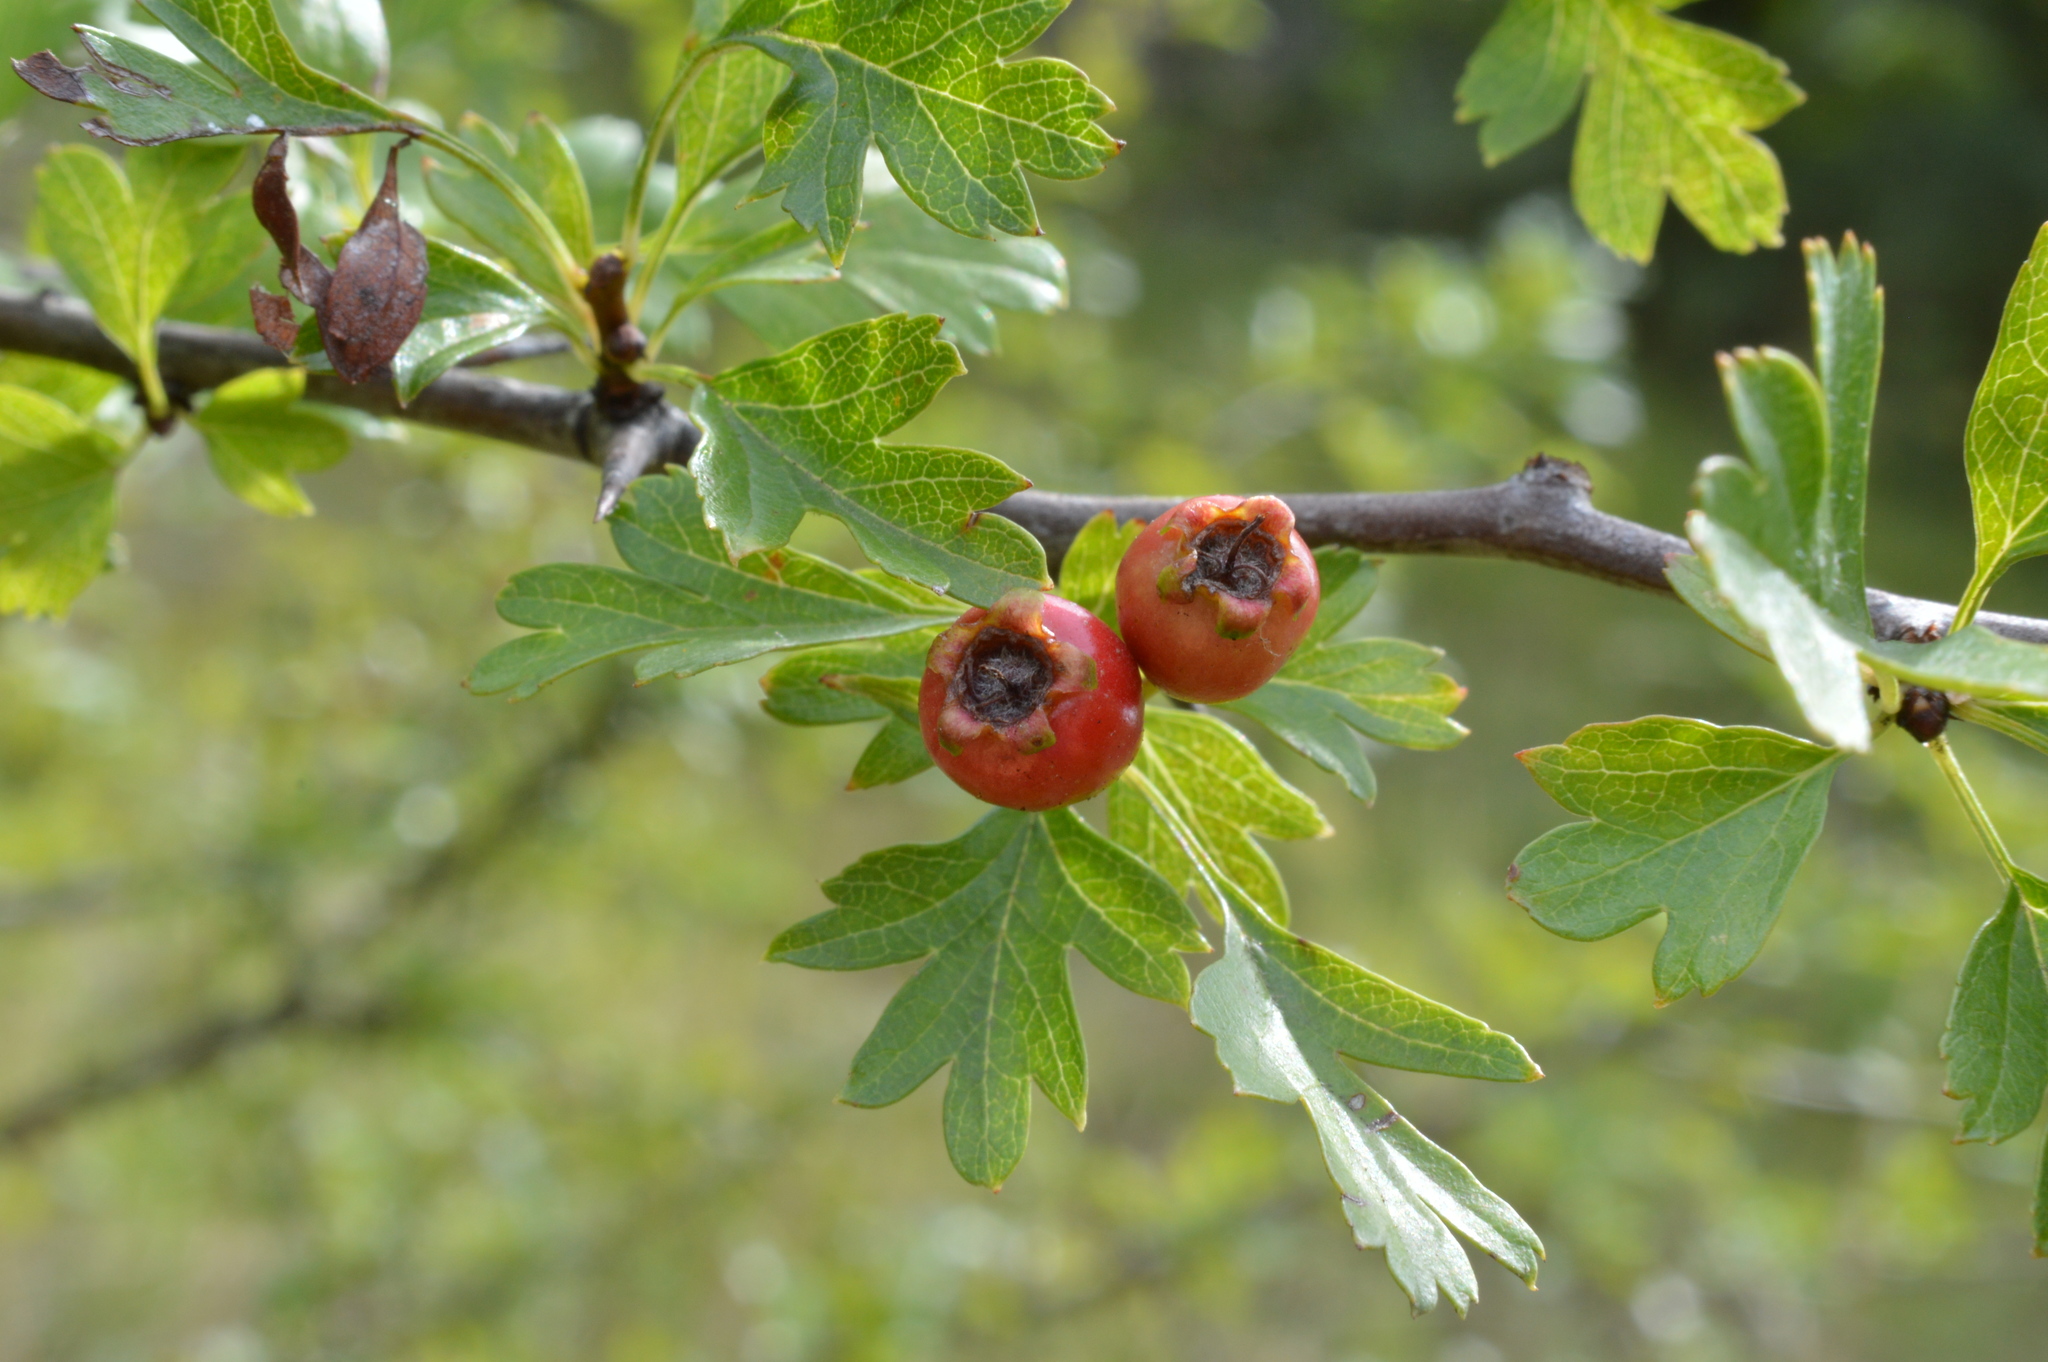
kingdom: Plantae
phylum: Tracheophyta
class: Magnoliopsida
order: Rosales
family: Rosaceae
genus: Crataegus
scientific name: Crataegus monogyna
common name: Hawthorn
